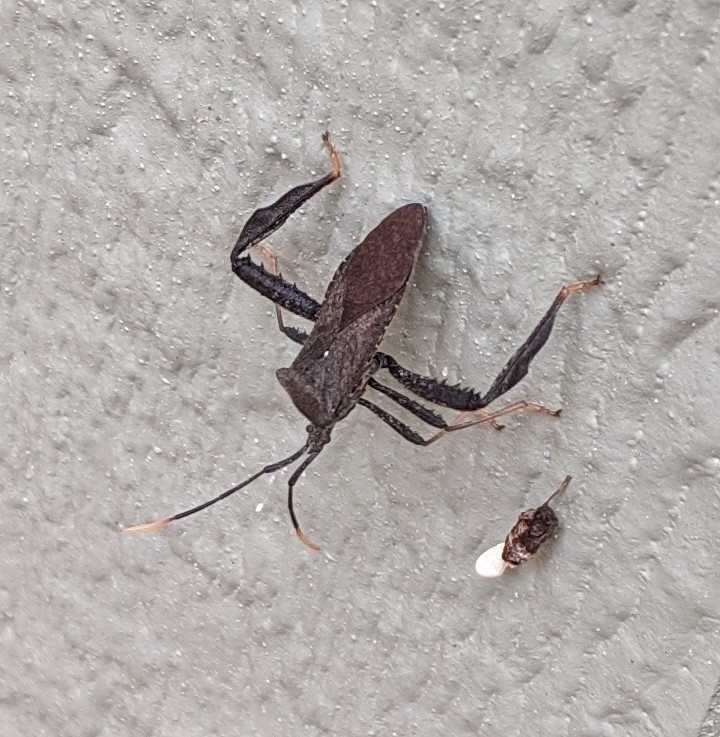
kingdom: Animalia
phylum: Arthropoda
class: Insecta
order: Hemiptera
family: Coreidae
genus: Acanthocephala
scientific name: Acanthocephala terminalis
